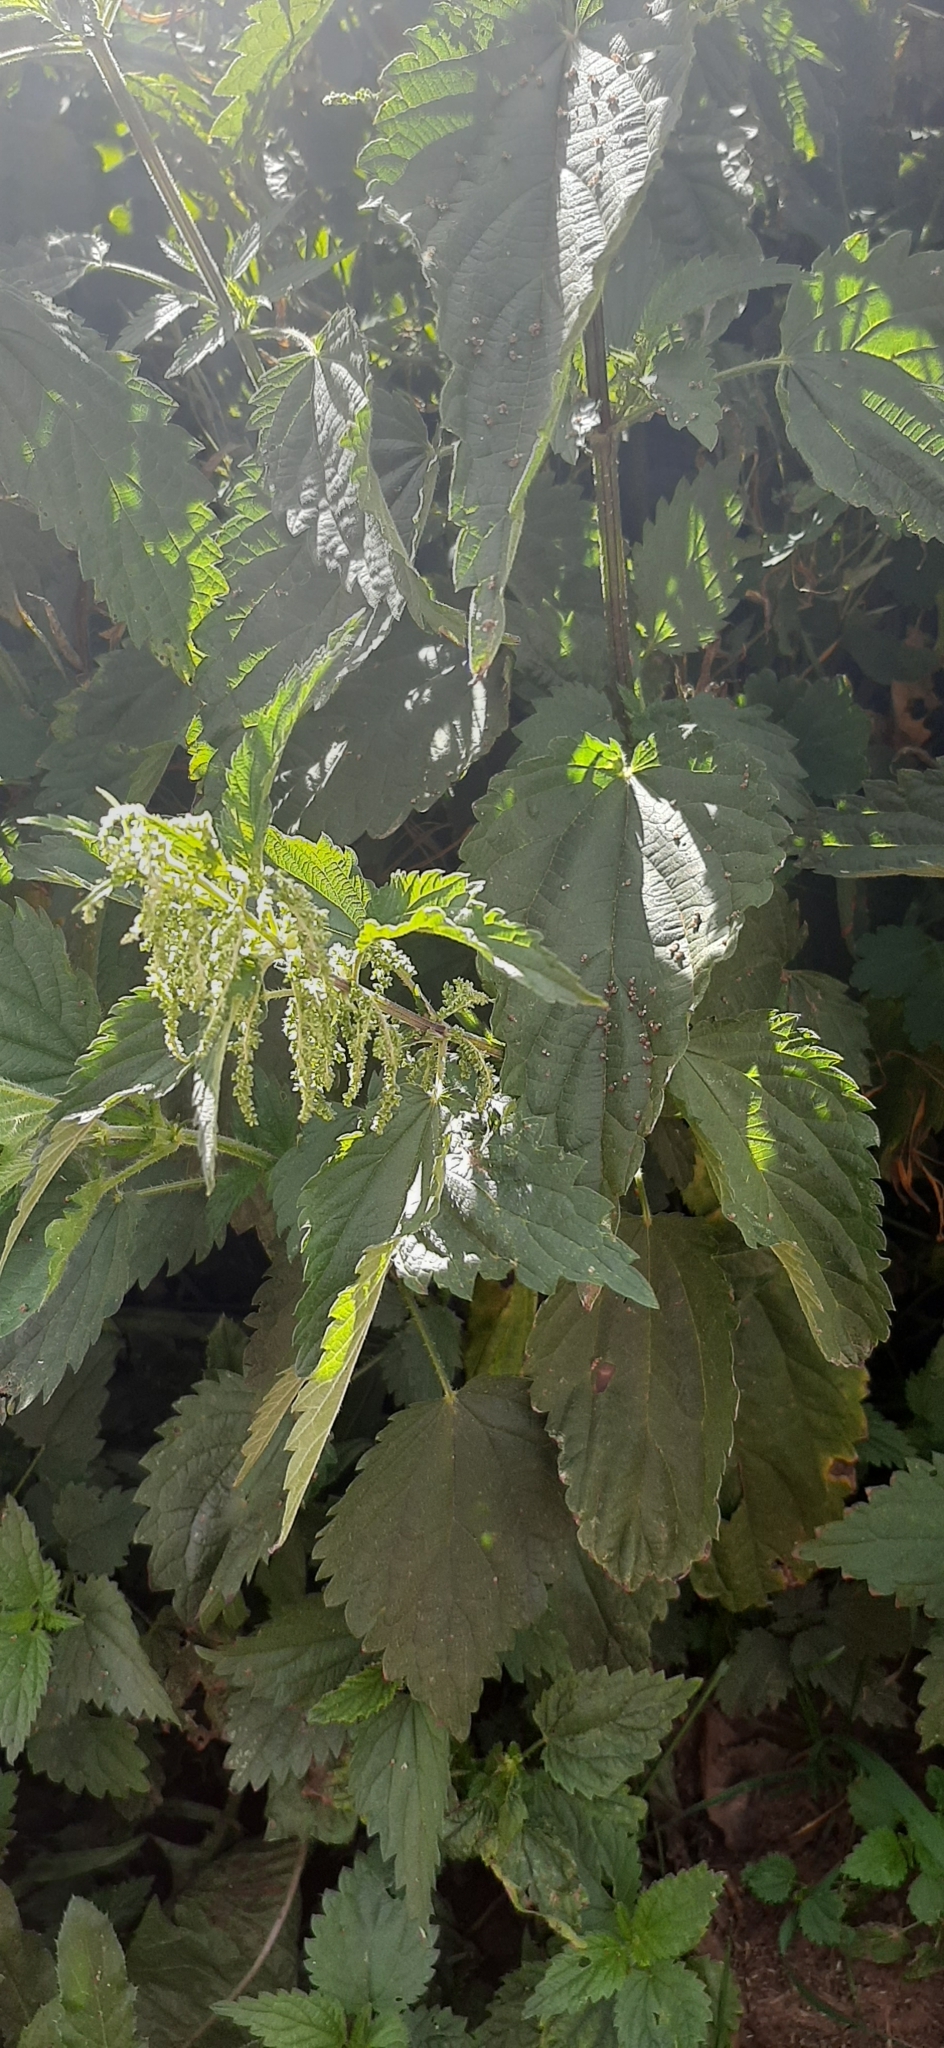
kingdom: Plantae
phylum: Tracheophyta
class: Magnoliopsida
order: Rosales
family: Urticaceae
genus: Urtica
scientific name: Urtica dioica
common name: Common nettle
